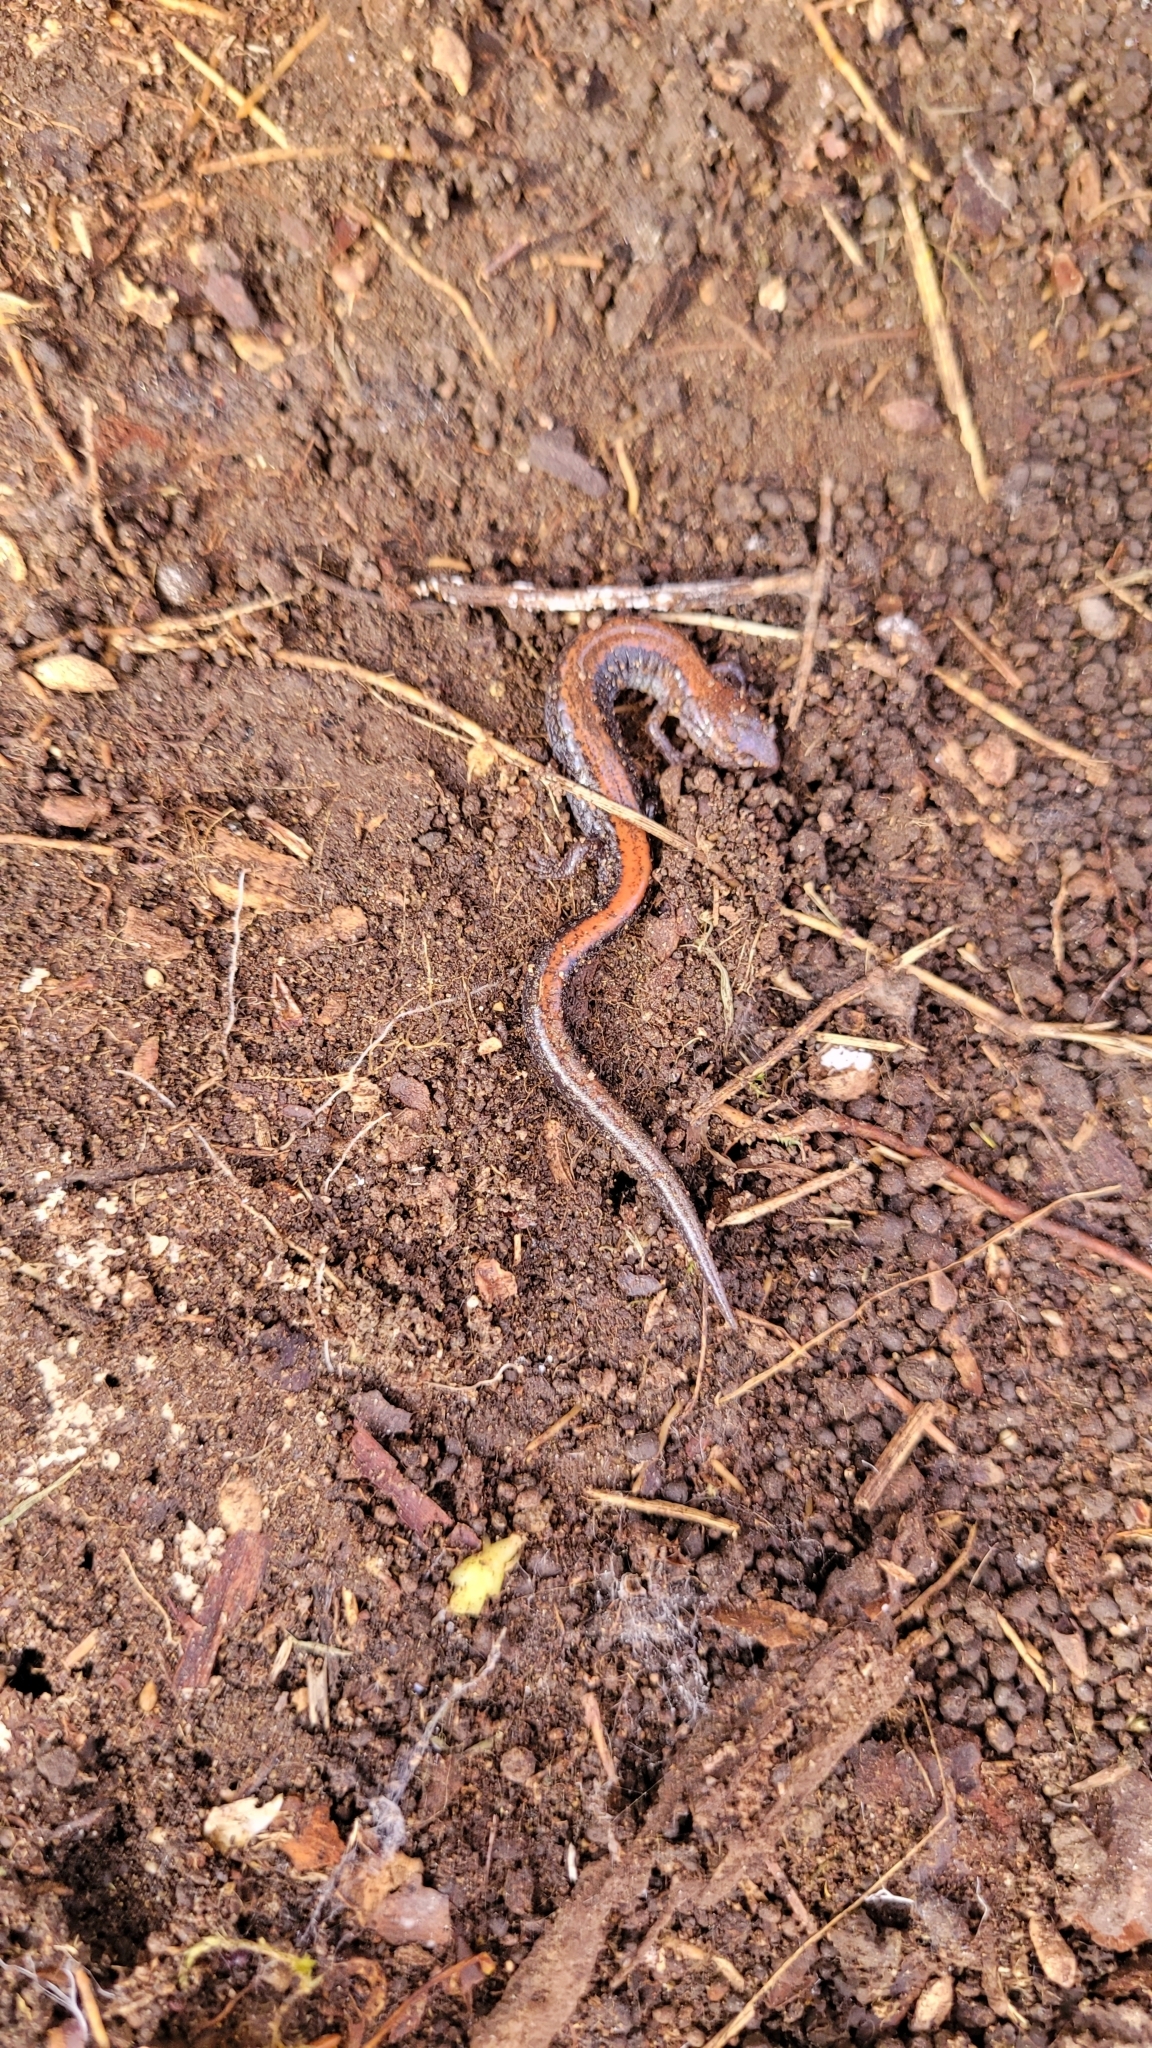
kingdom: Animalia
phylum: Chordata
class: Amphibia
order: Caudata
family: Plethodontidae
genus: Plethodon
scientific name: Plethodon cinereus
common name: Redback salamander
